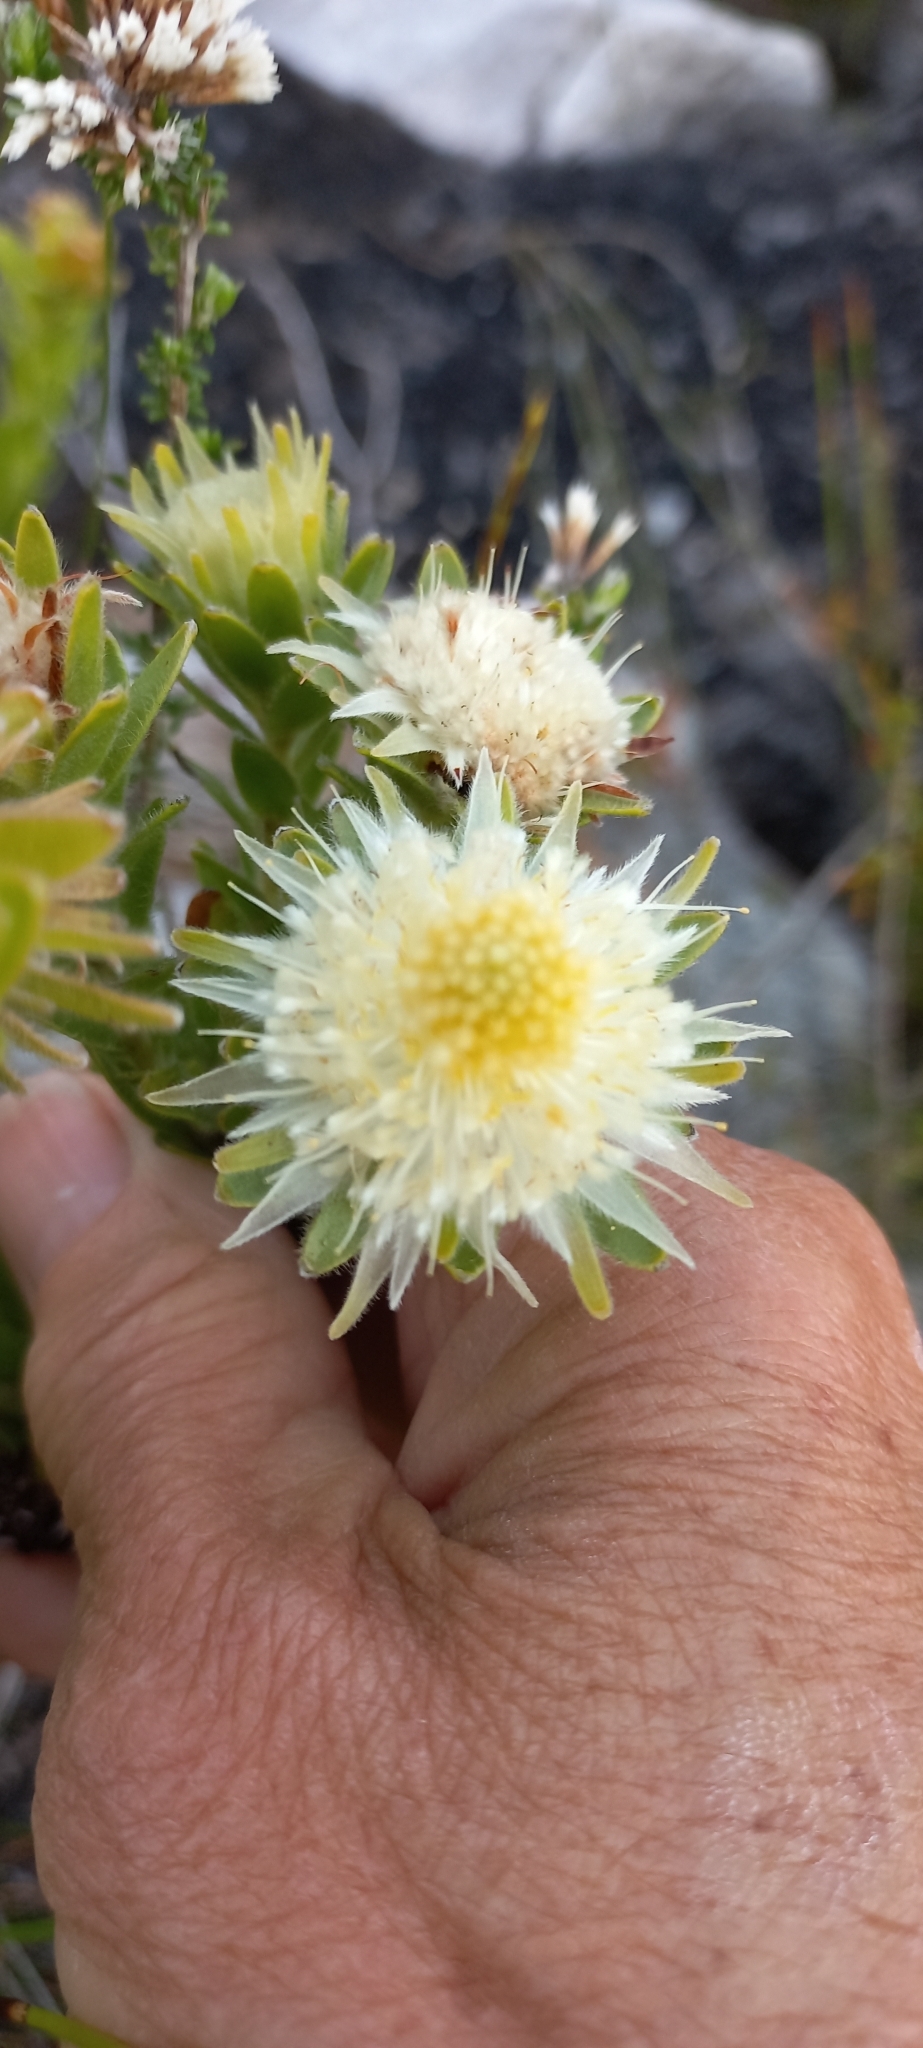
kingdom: Plantae
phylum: Tracheophyta
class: Magnoliopsida
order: Proteales
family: Proteaceae
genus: Diastella
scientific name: Diastella thymelaeoides
